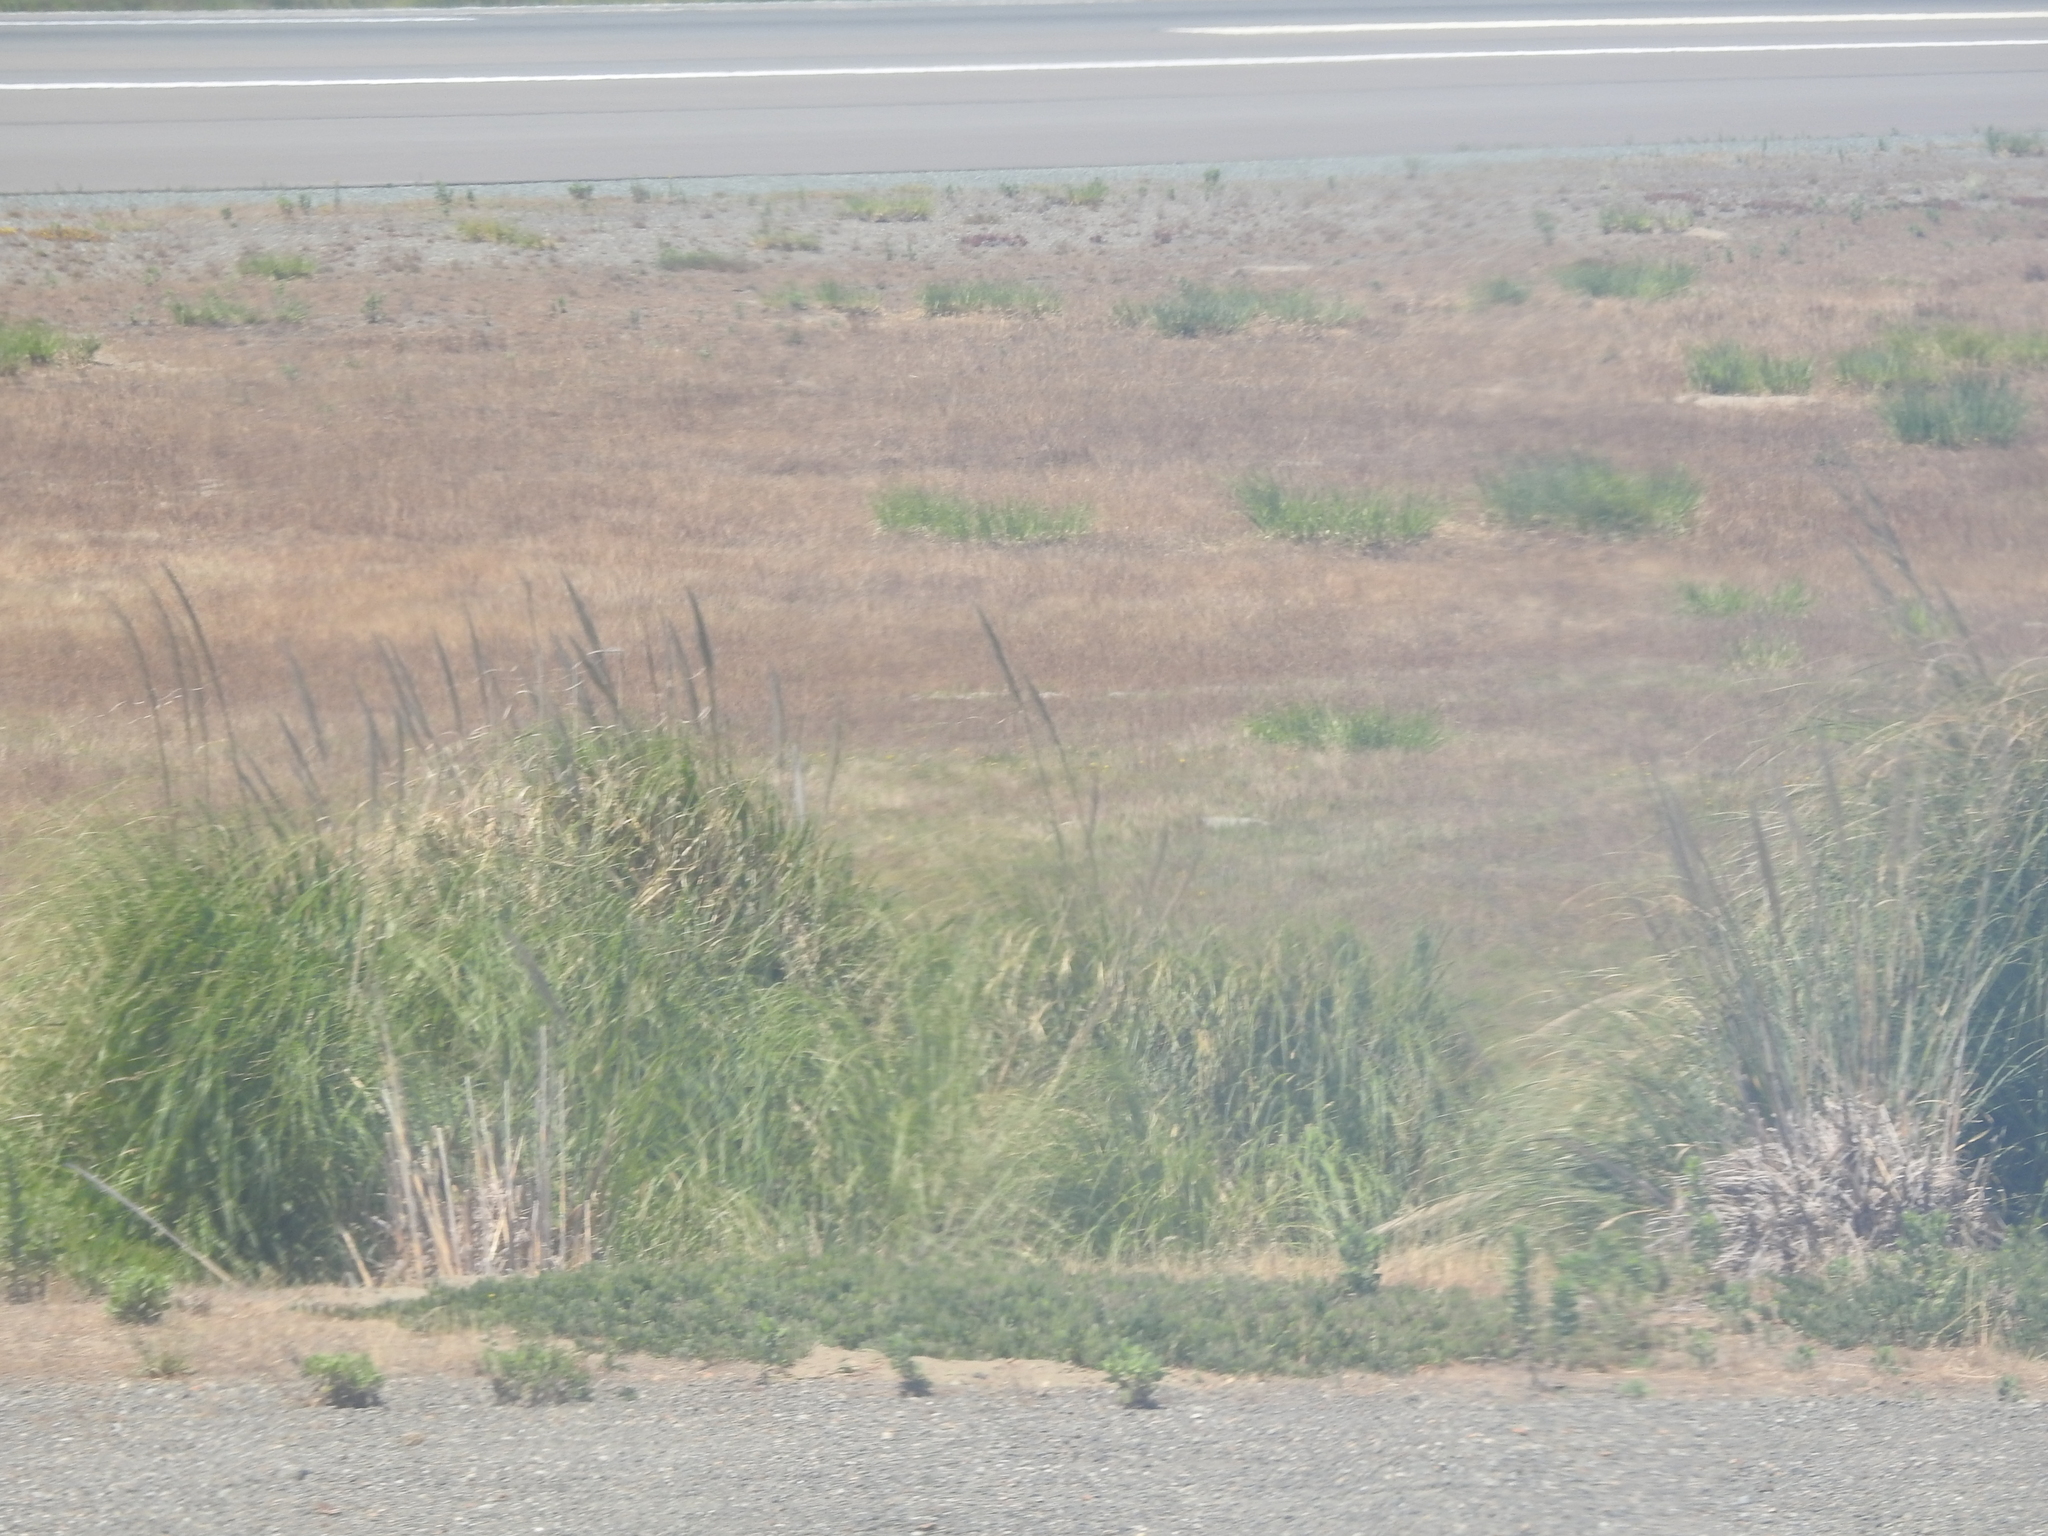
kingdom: Plantae
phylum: Tracheophyta
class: Liliopsida
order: Poales
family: Poaceae
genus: Cortaderia
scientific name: Cortaderia selloana
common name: Uruguayan pampas grass
